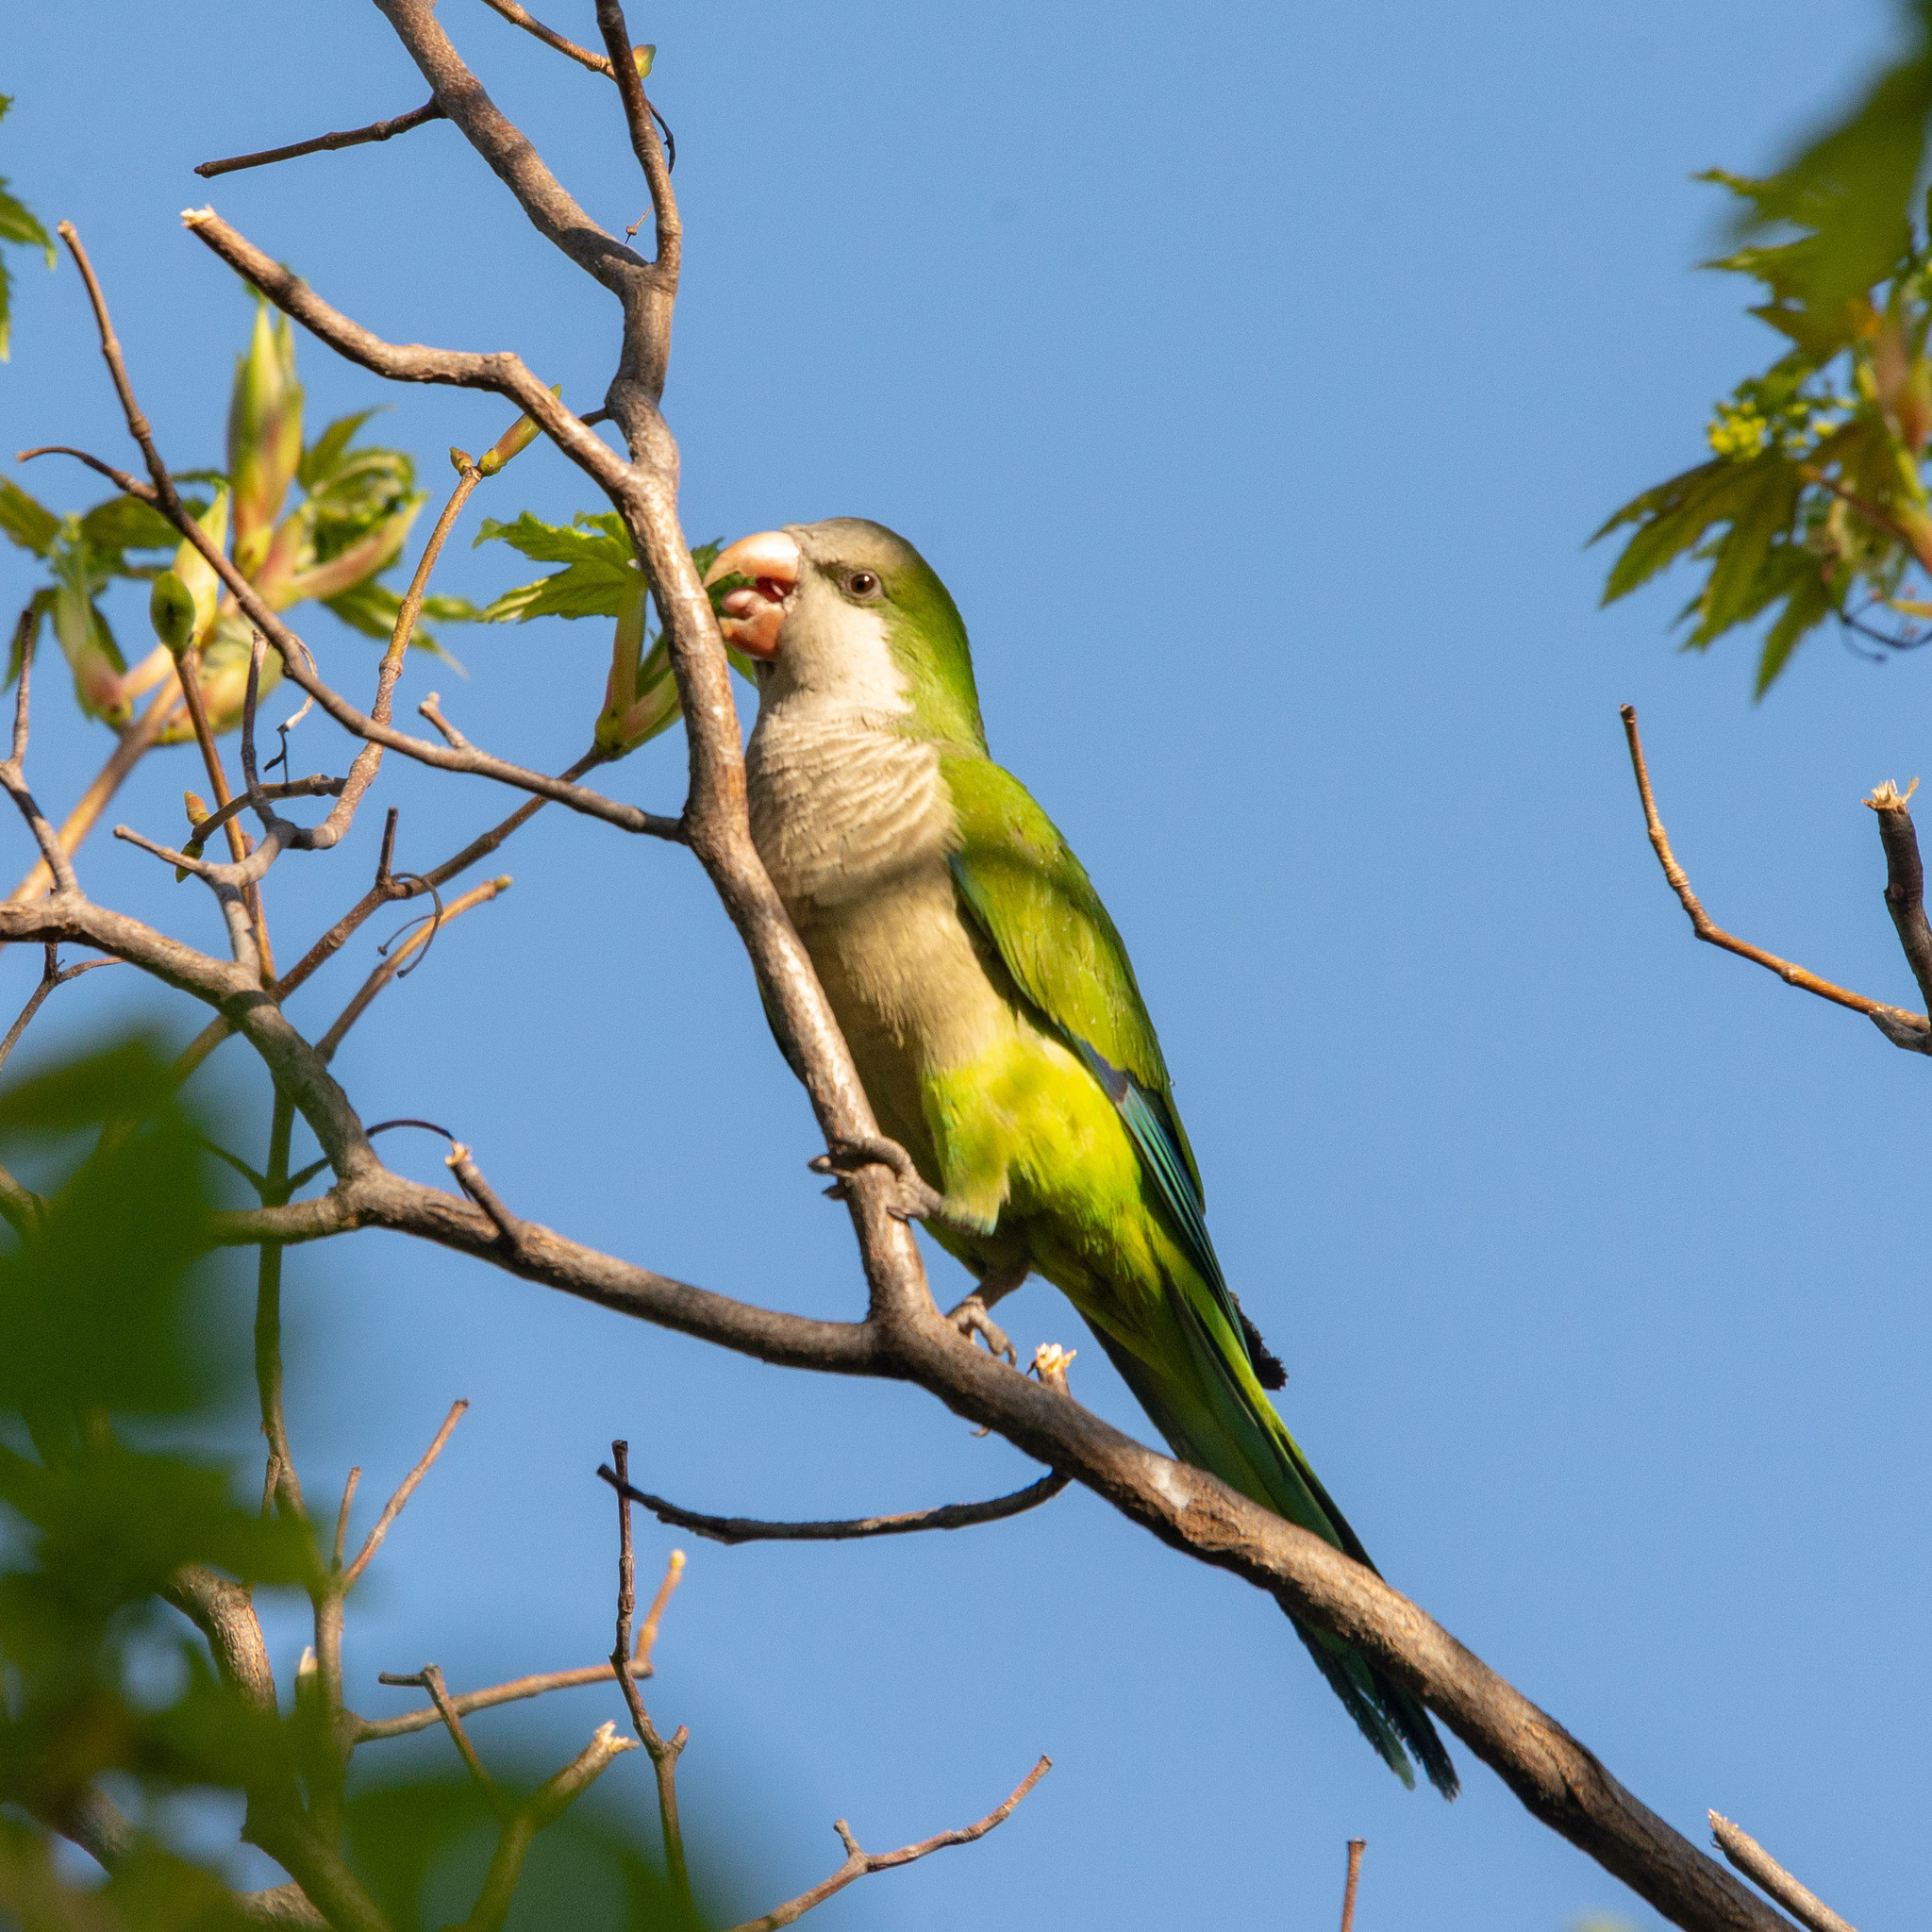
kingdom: Animalia
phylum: Chordata
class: Aves
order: Psittaciformes
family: Psittacidae
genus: Myiopsitta
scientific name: Myiopsitta monachus
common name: Monk parakeet
